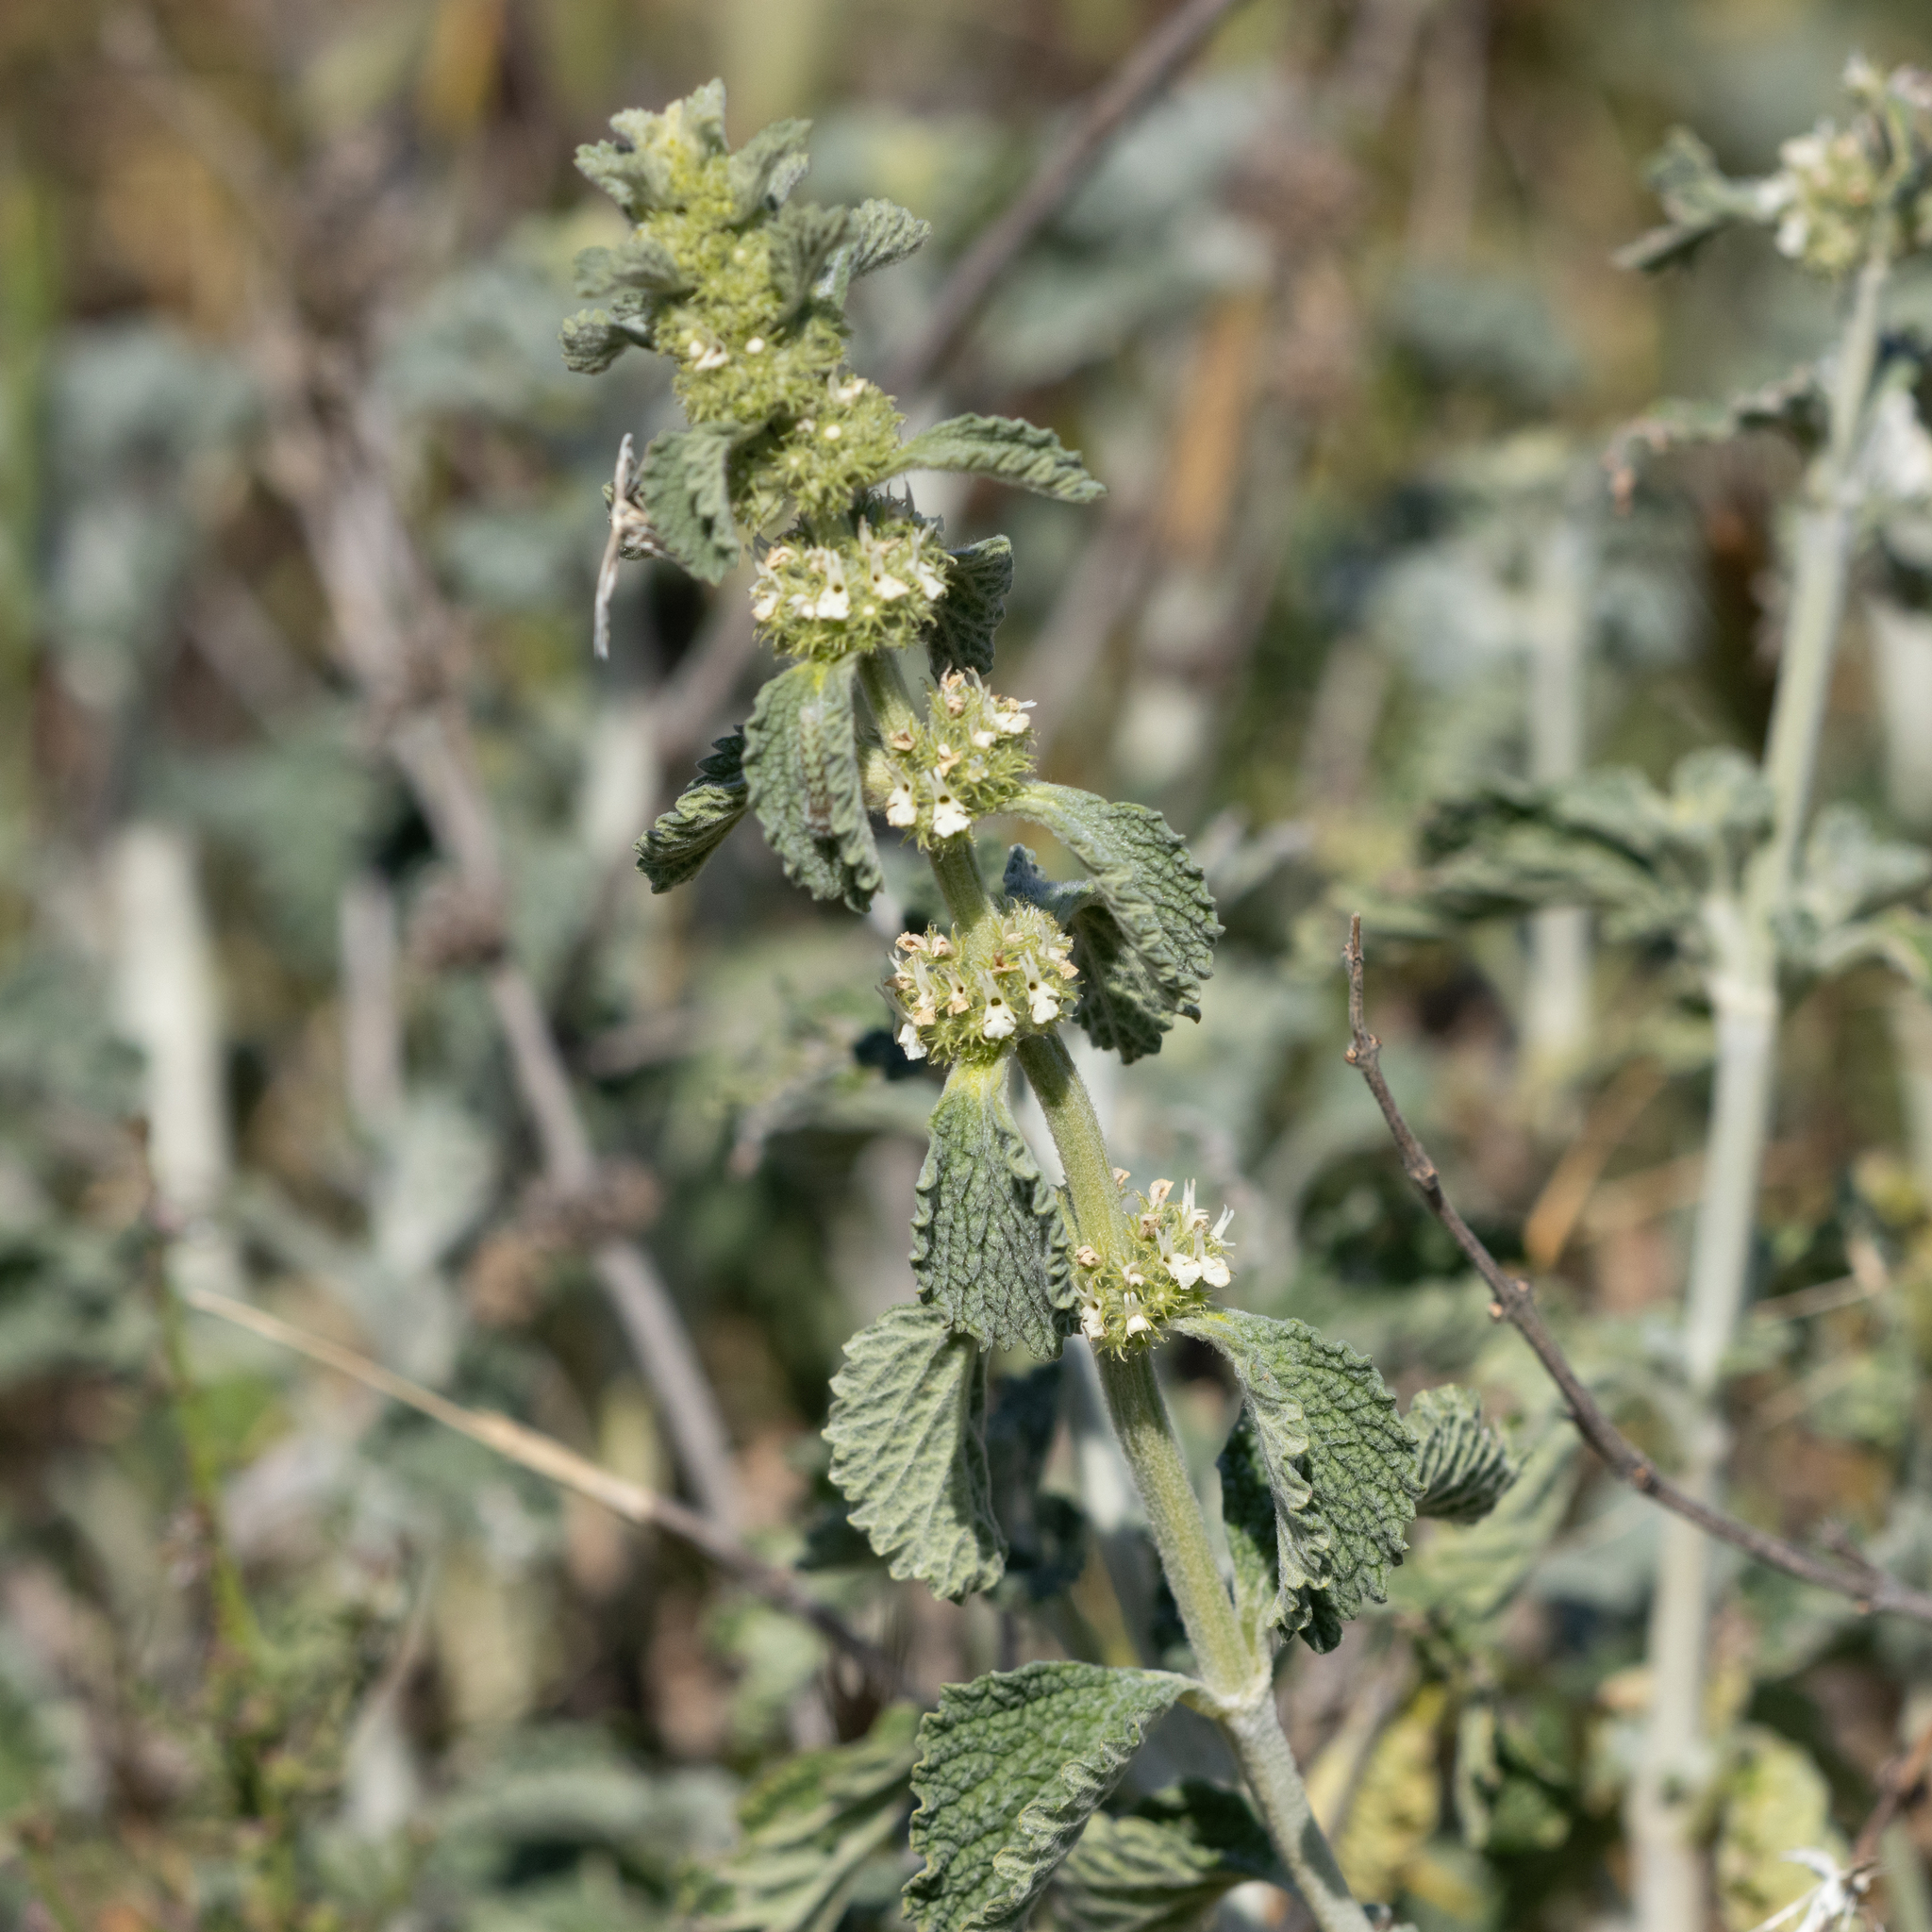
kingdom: Plantae
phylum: Tracheophyta
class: Magnoliopsida
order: Lamiales
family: Lamiaceae
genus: Marrubium
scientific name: Marrubium vulgare
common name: Horehound
